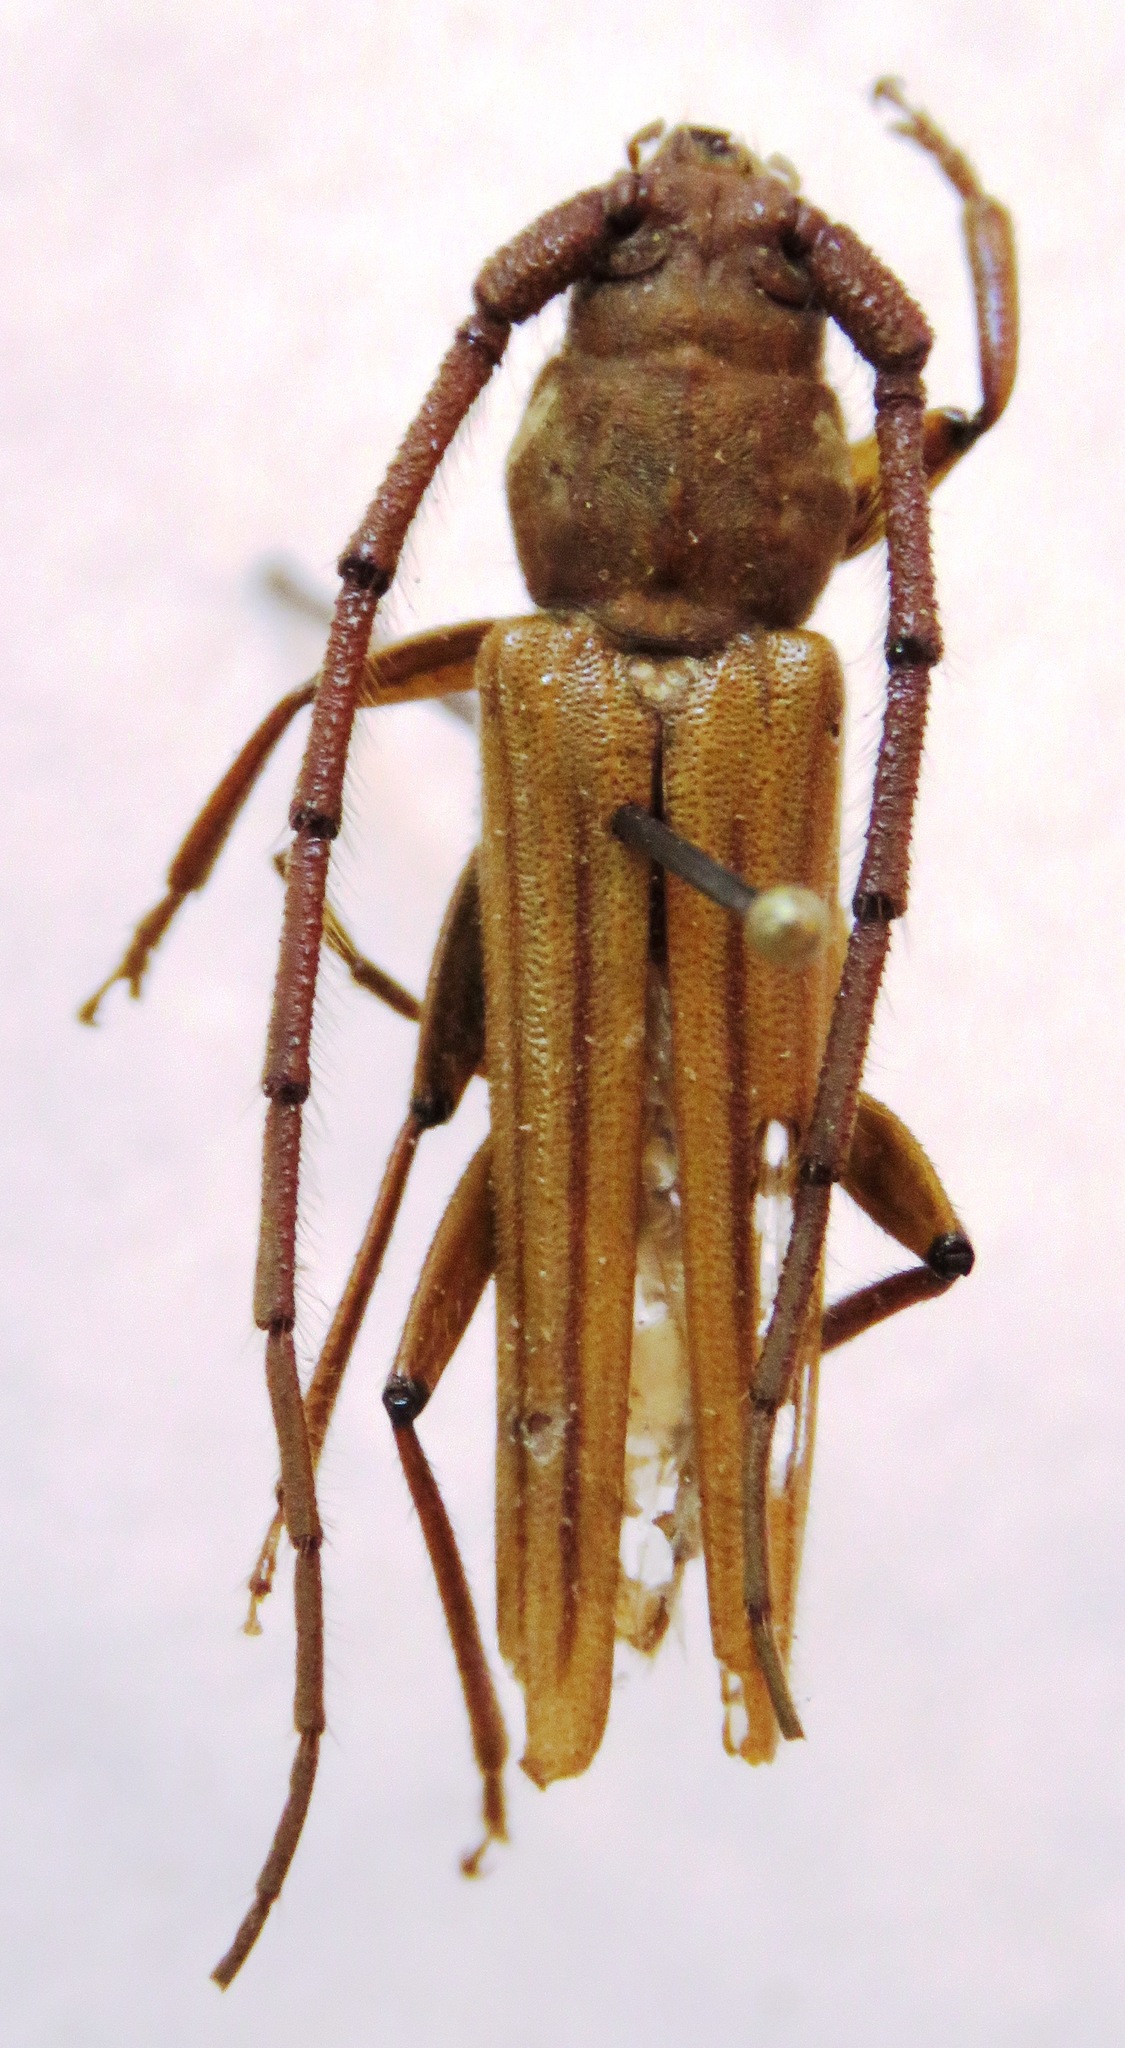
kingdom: Animalia
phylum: Arthropoda
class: Insecta
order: Coleoptera
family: Cerambycidae
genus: Malacopterus
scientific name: Malacopterus tenellus
